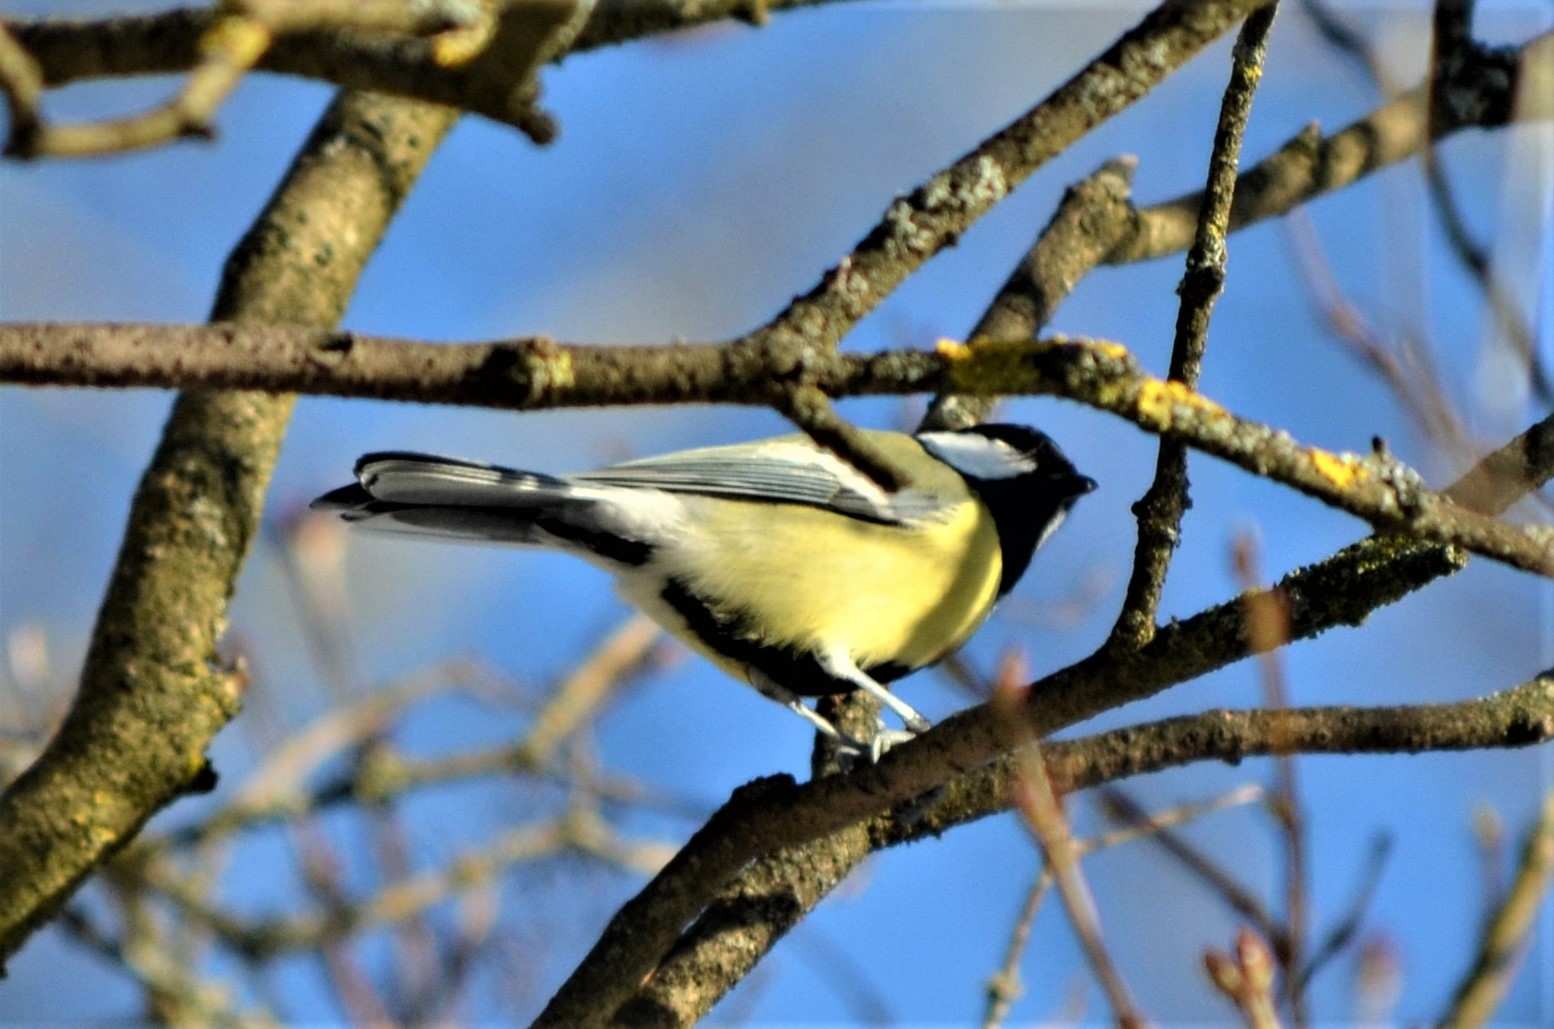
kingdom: Animalia
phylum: Chordata
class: Aves
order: Passeriformes
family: Paridae
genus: Parus
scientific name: Parus major
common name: Great tit
